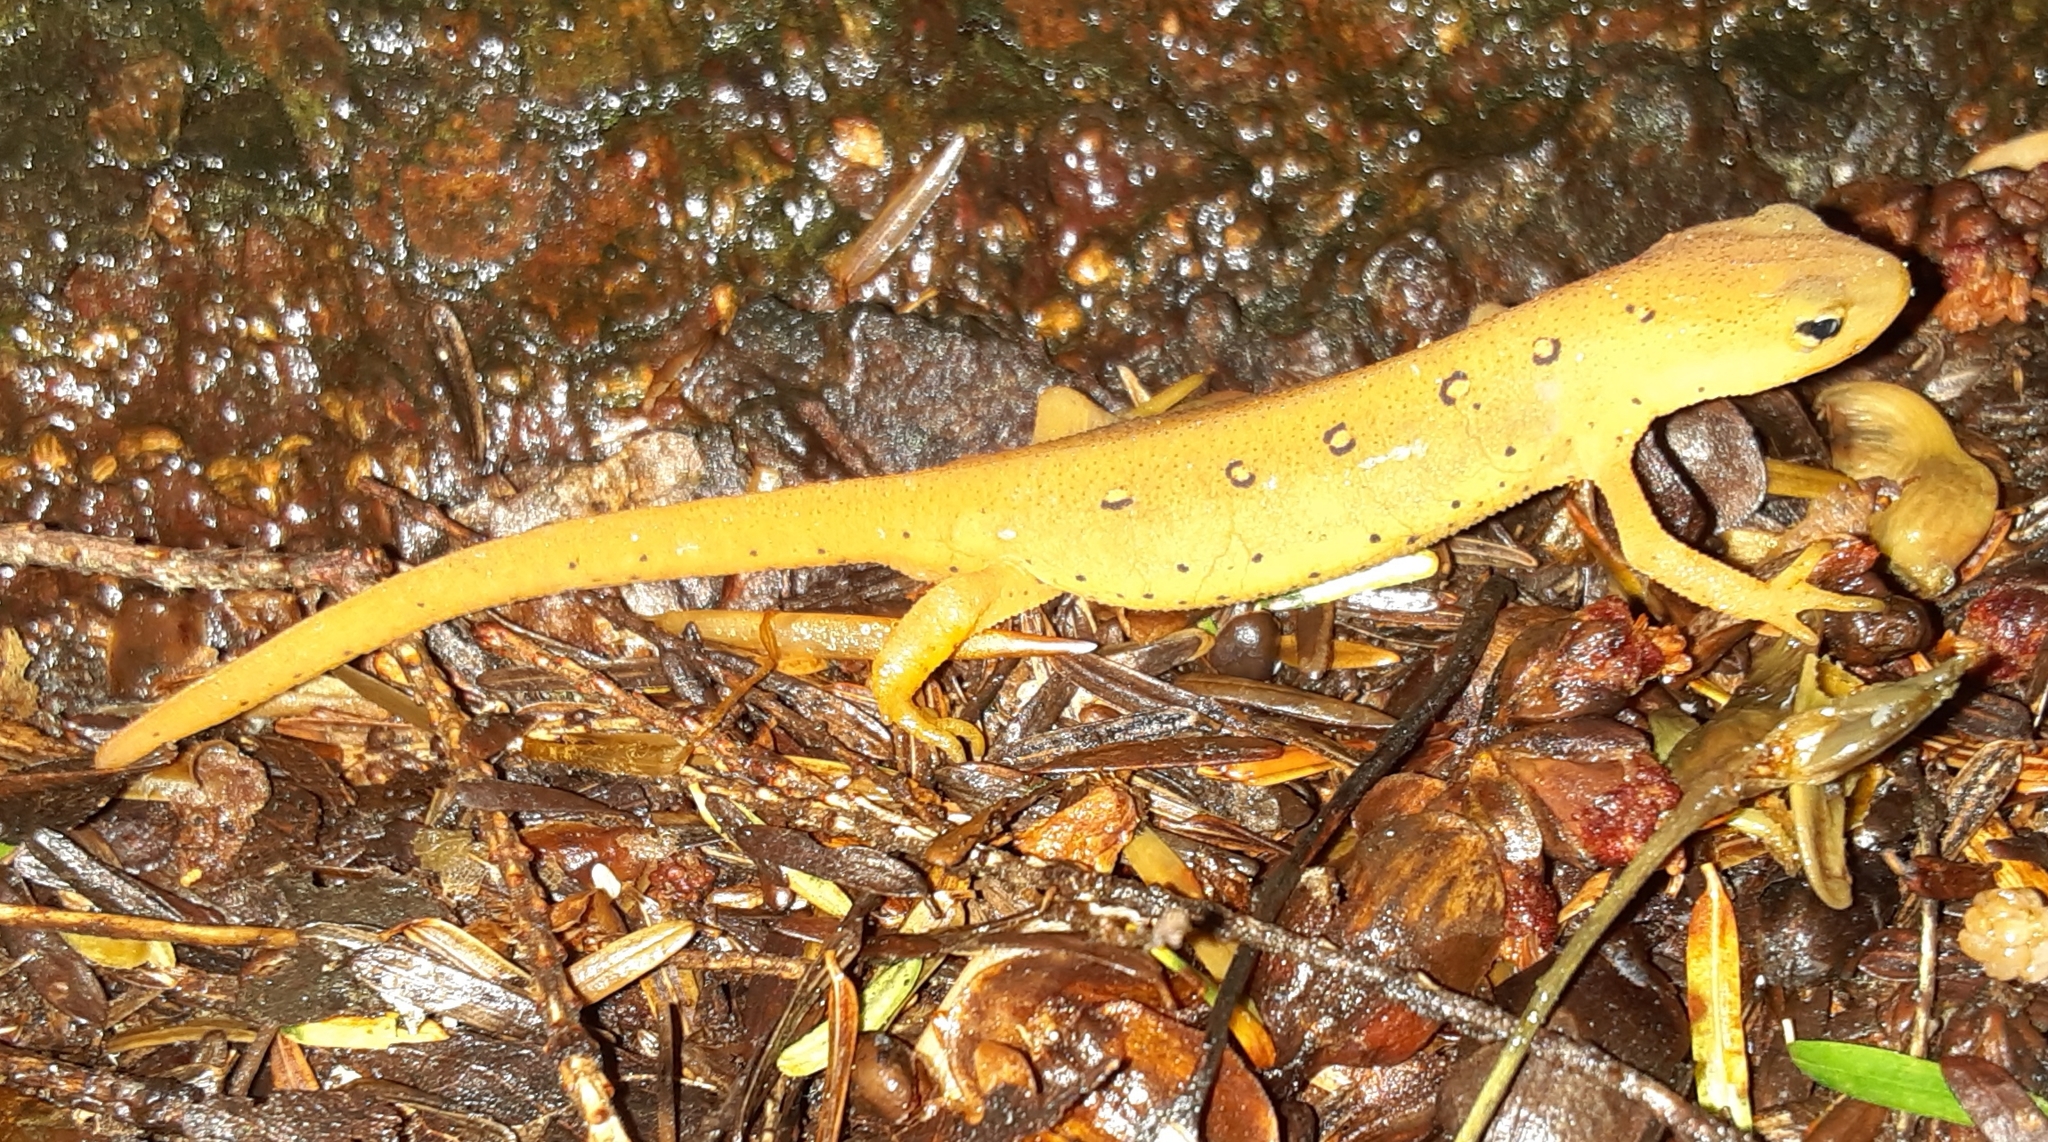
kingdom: Animalia
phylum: Chordata
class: Amphibia
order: Caudata
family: Salamandridae
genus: Notophthalmus
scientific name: Notophthalmus viridescens
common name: Eastern newt
